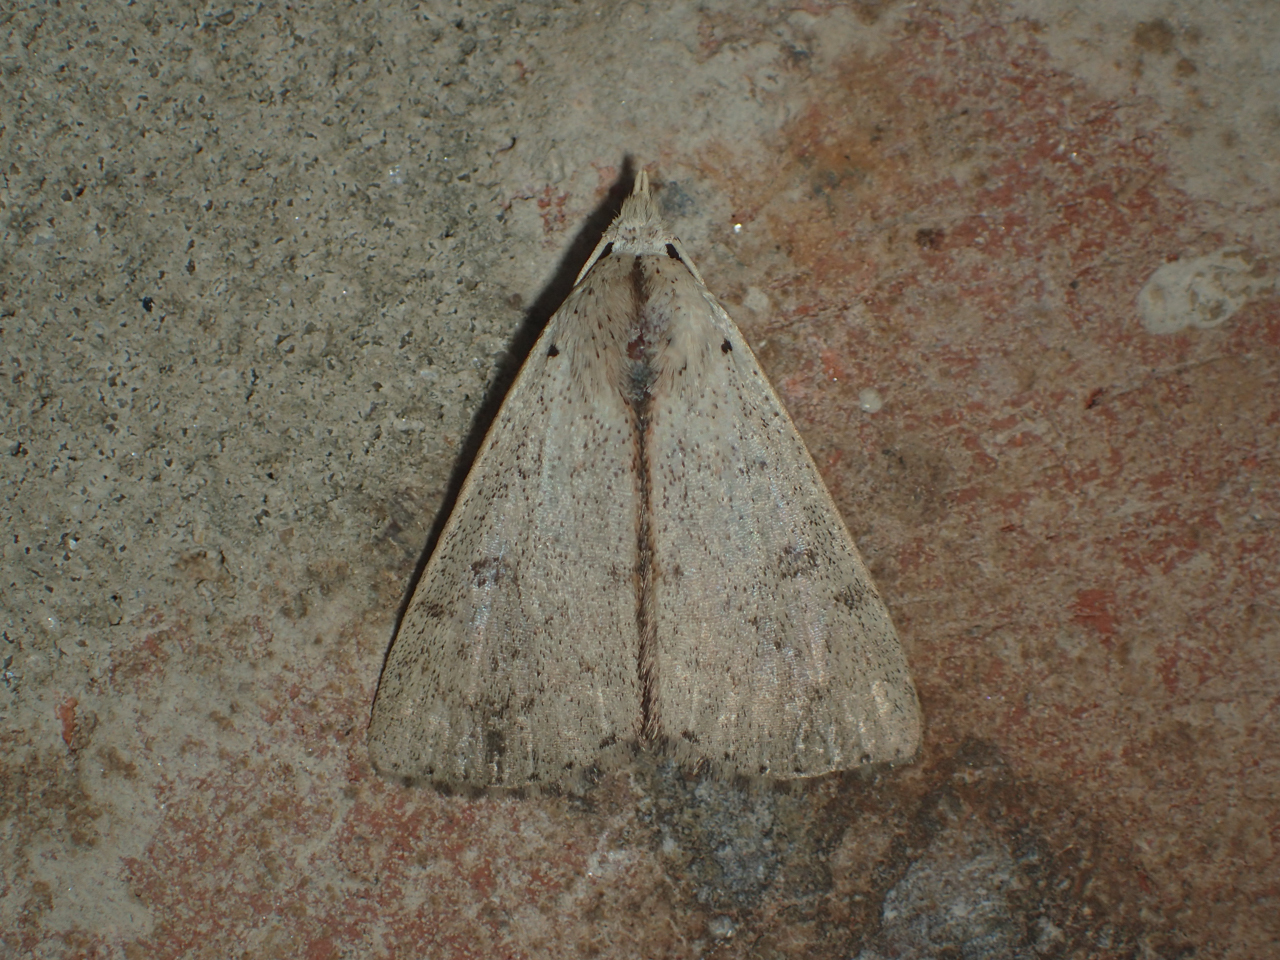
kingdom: Animalia
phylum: Arthropoda
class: Insecta
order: Lepidoptera
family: Erebidae
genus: Scolecocampa
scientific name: Scolecocampa liburna
